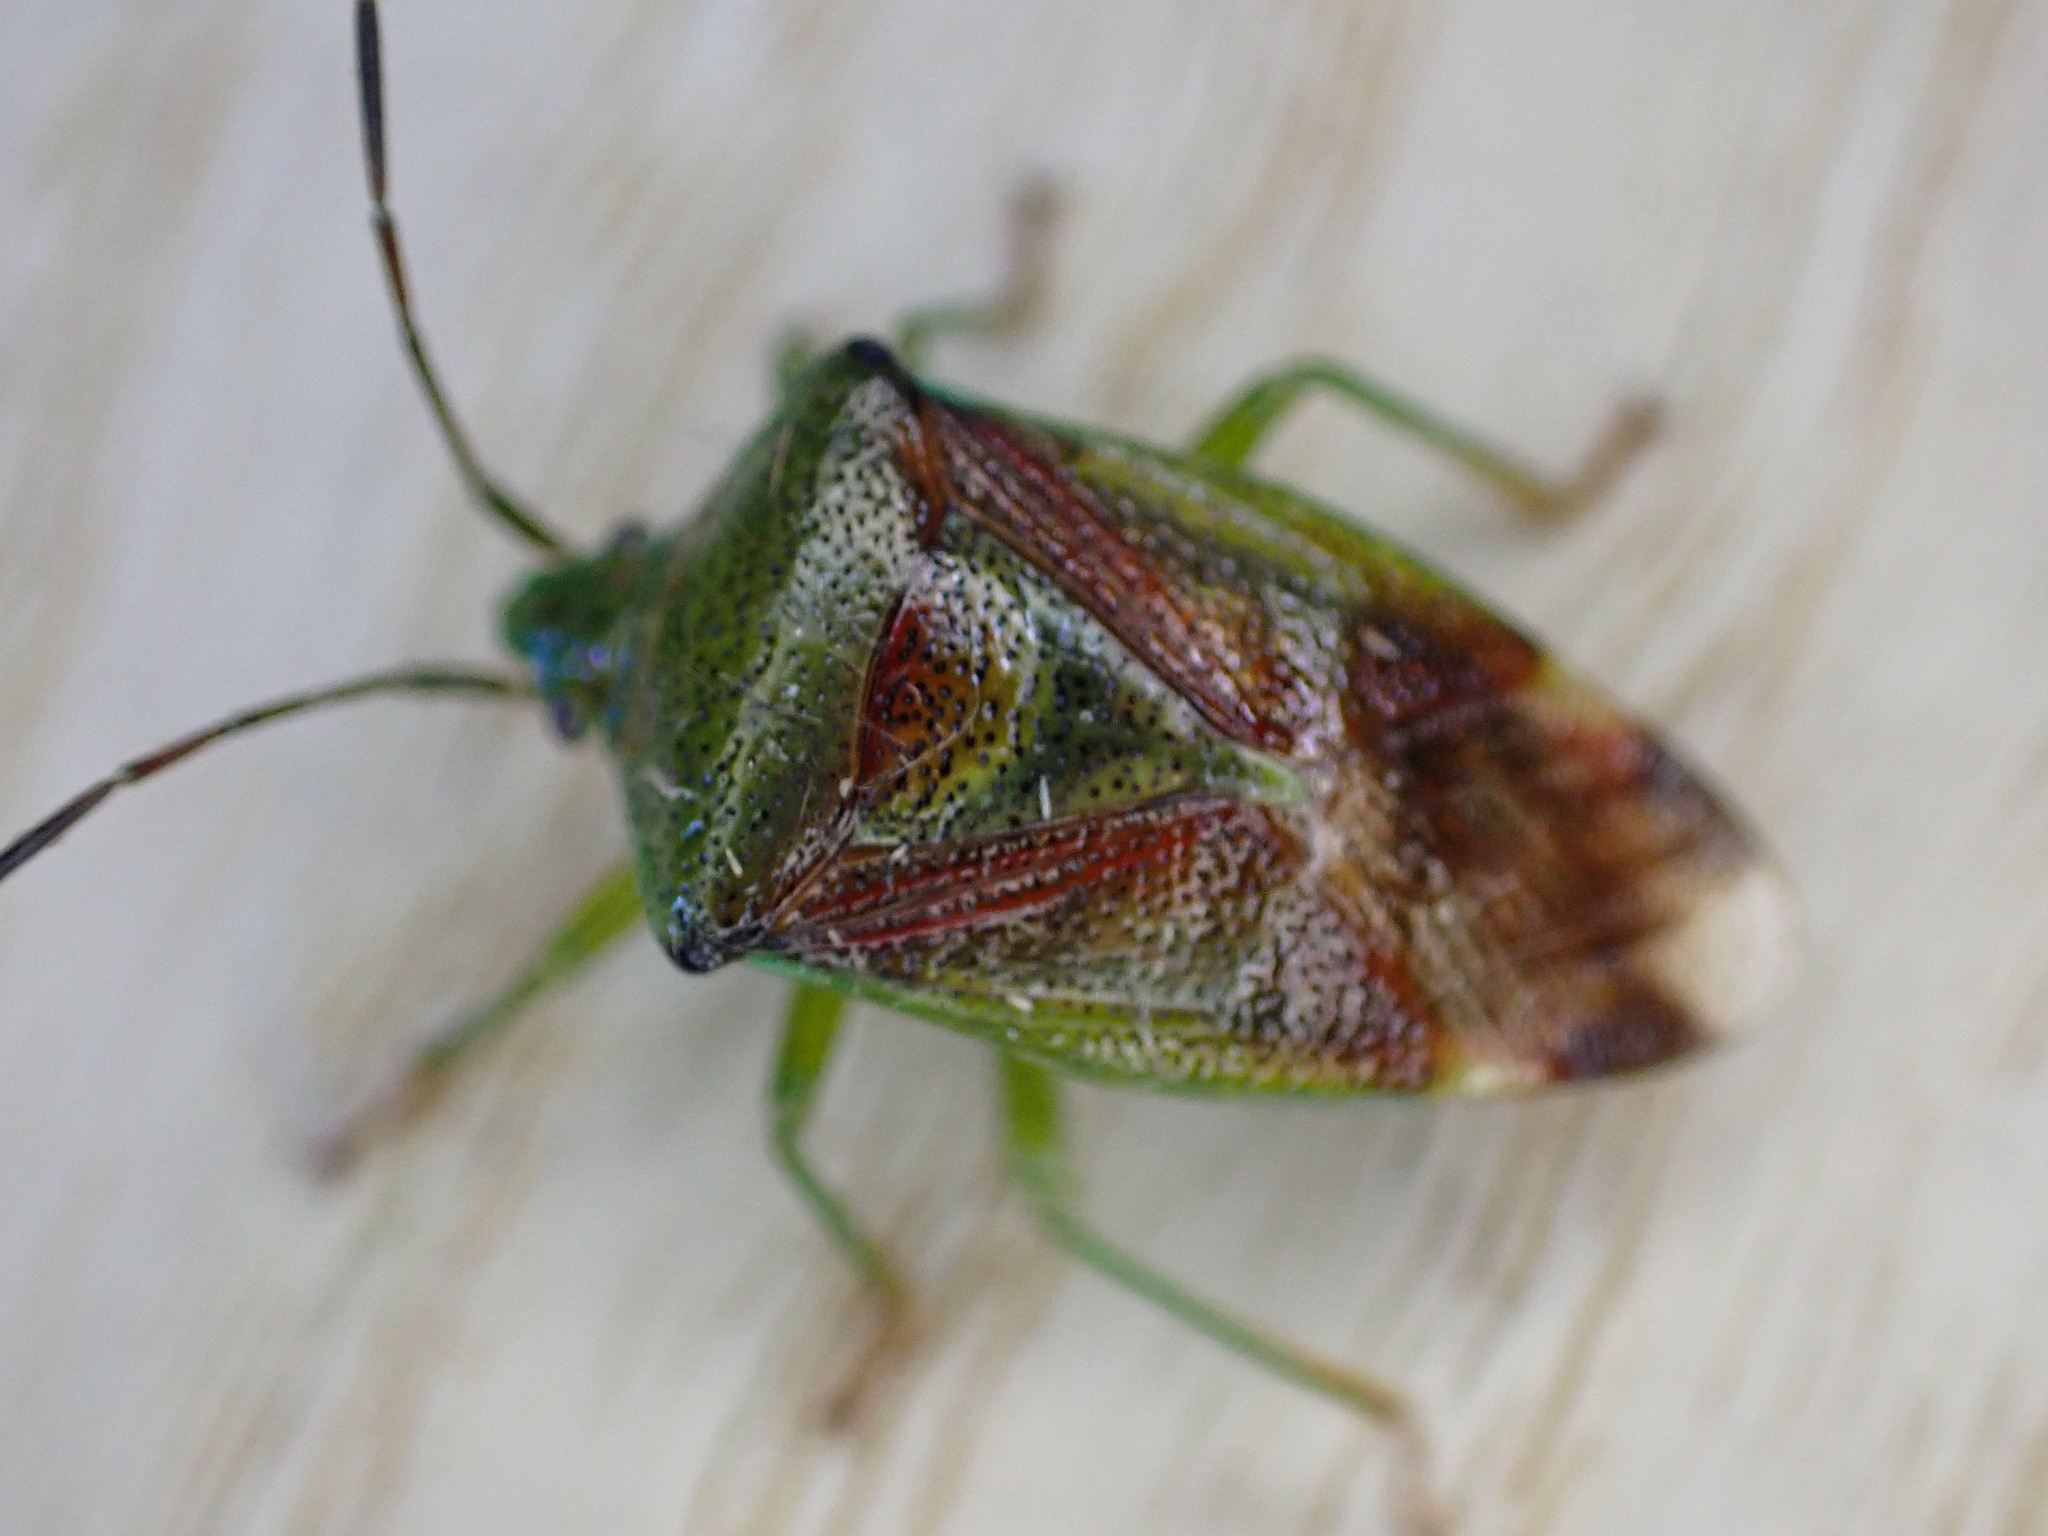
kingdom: Animalia
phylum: Arthropoda
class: Insecta
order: Hemiptera
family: Acanthosomatidae
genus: Elasmostethus
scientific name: Elasmostethus interstinctus
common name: Birch shieldbug
